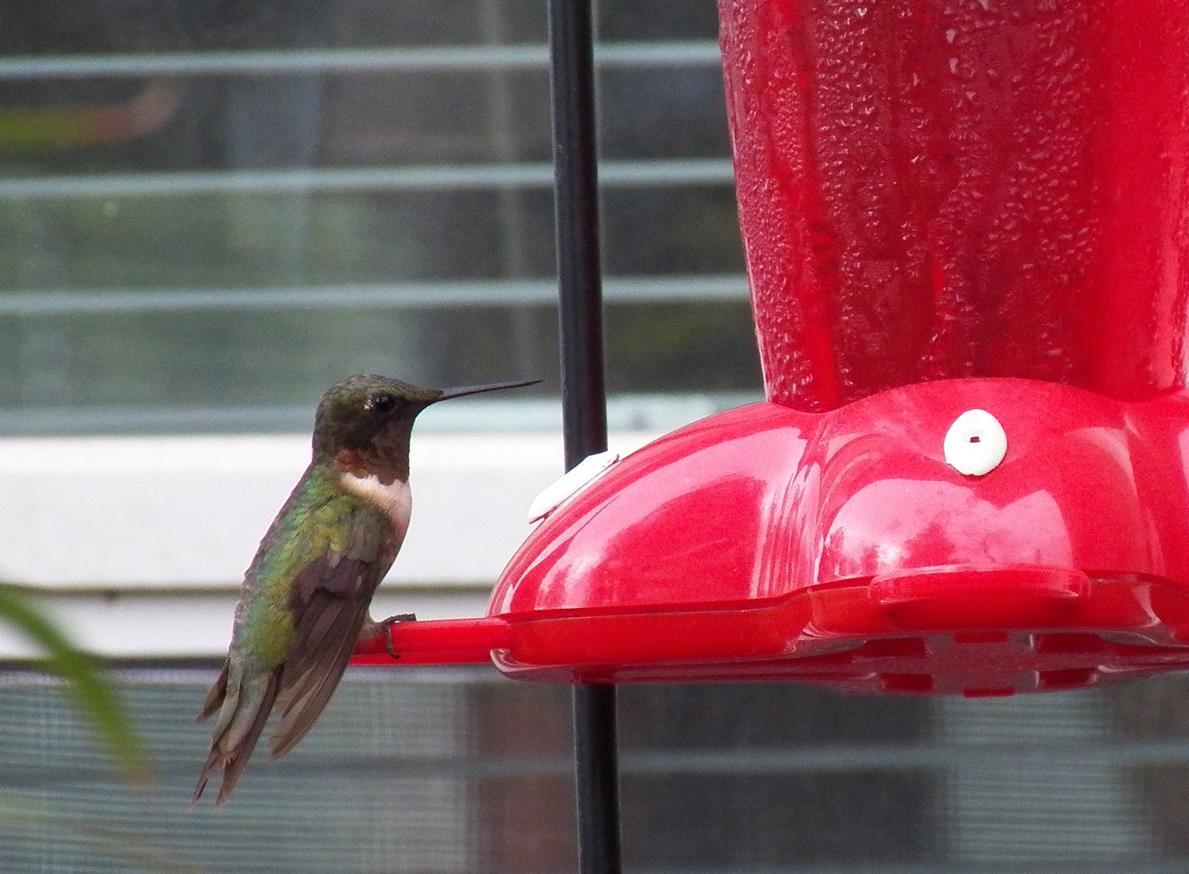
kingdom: Animalia
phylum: Chordata
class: Aves
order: Apodiformes
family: Trochilidae
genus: Archilochus
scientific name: Archilochus colubris
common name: Ruby-throated hummingbird
